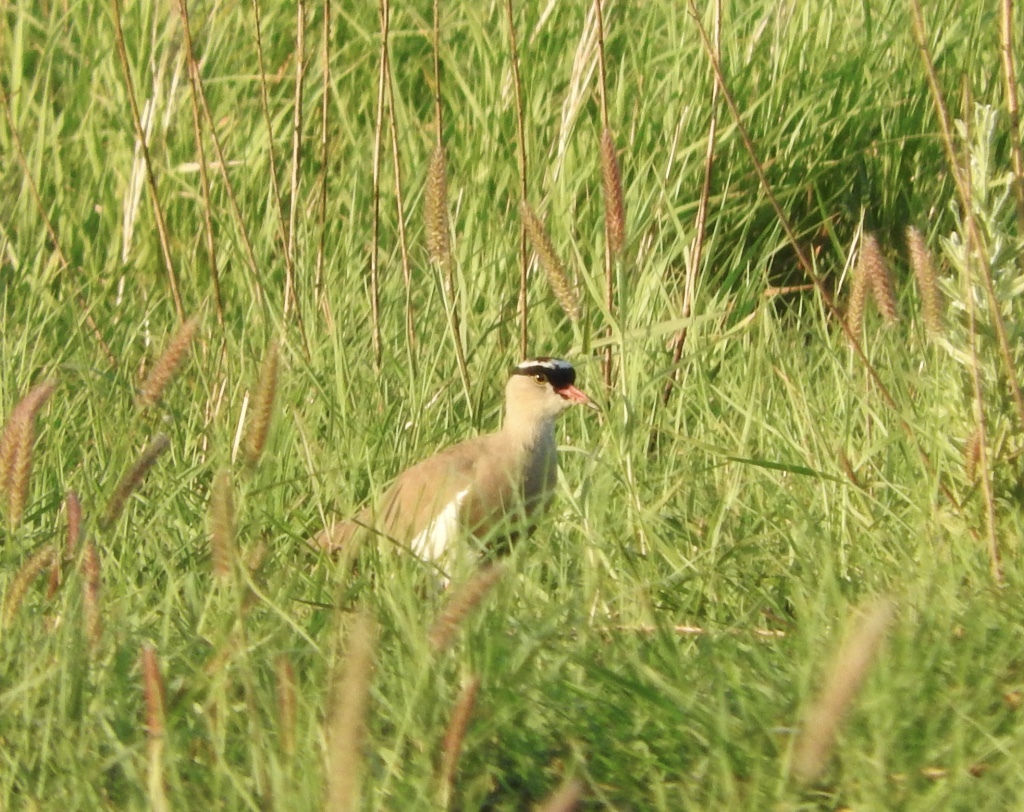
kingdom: Animalia
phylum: Chordata
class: Aves
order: Charadriiformes
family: Charadriidae
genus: Vanellus
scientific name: Vanellus coronatus
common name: Crowned lapwing
